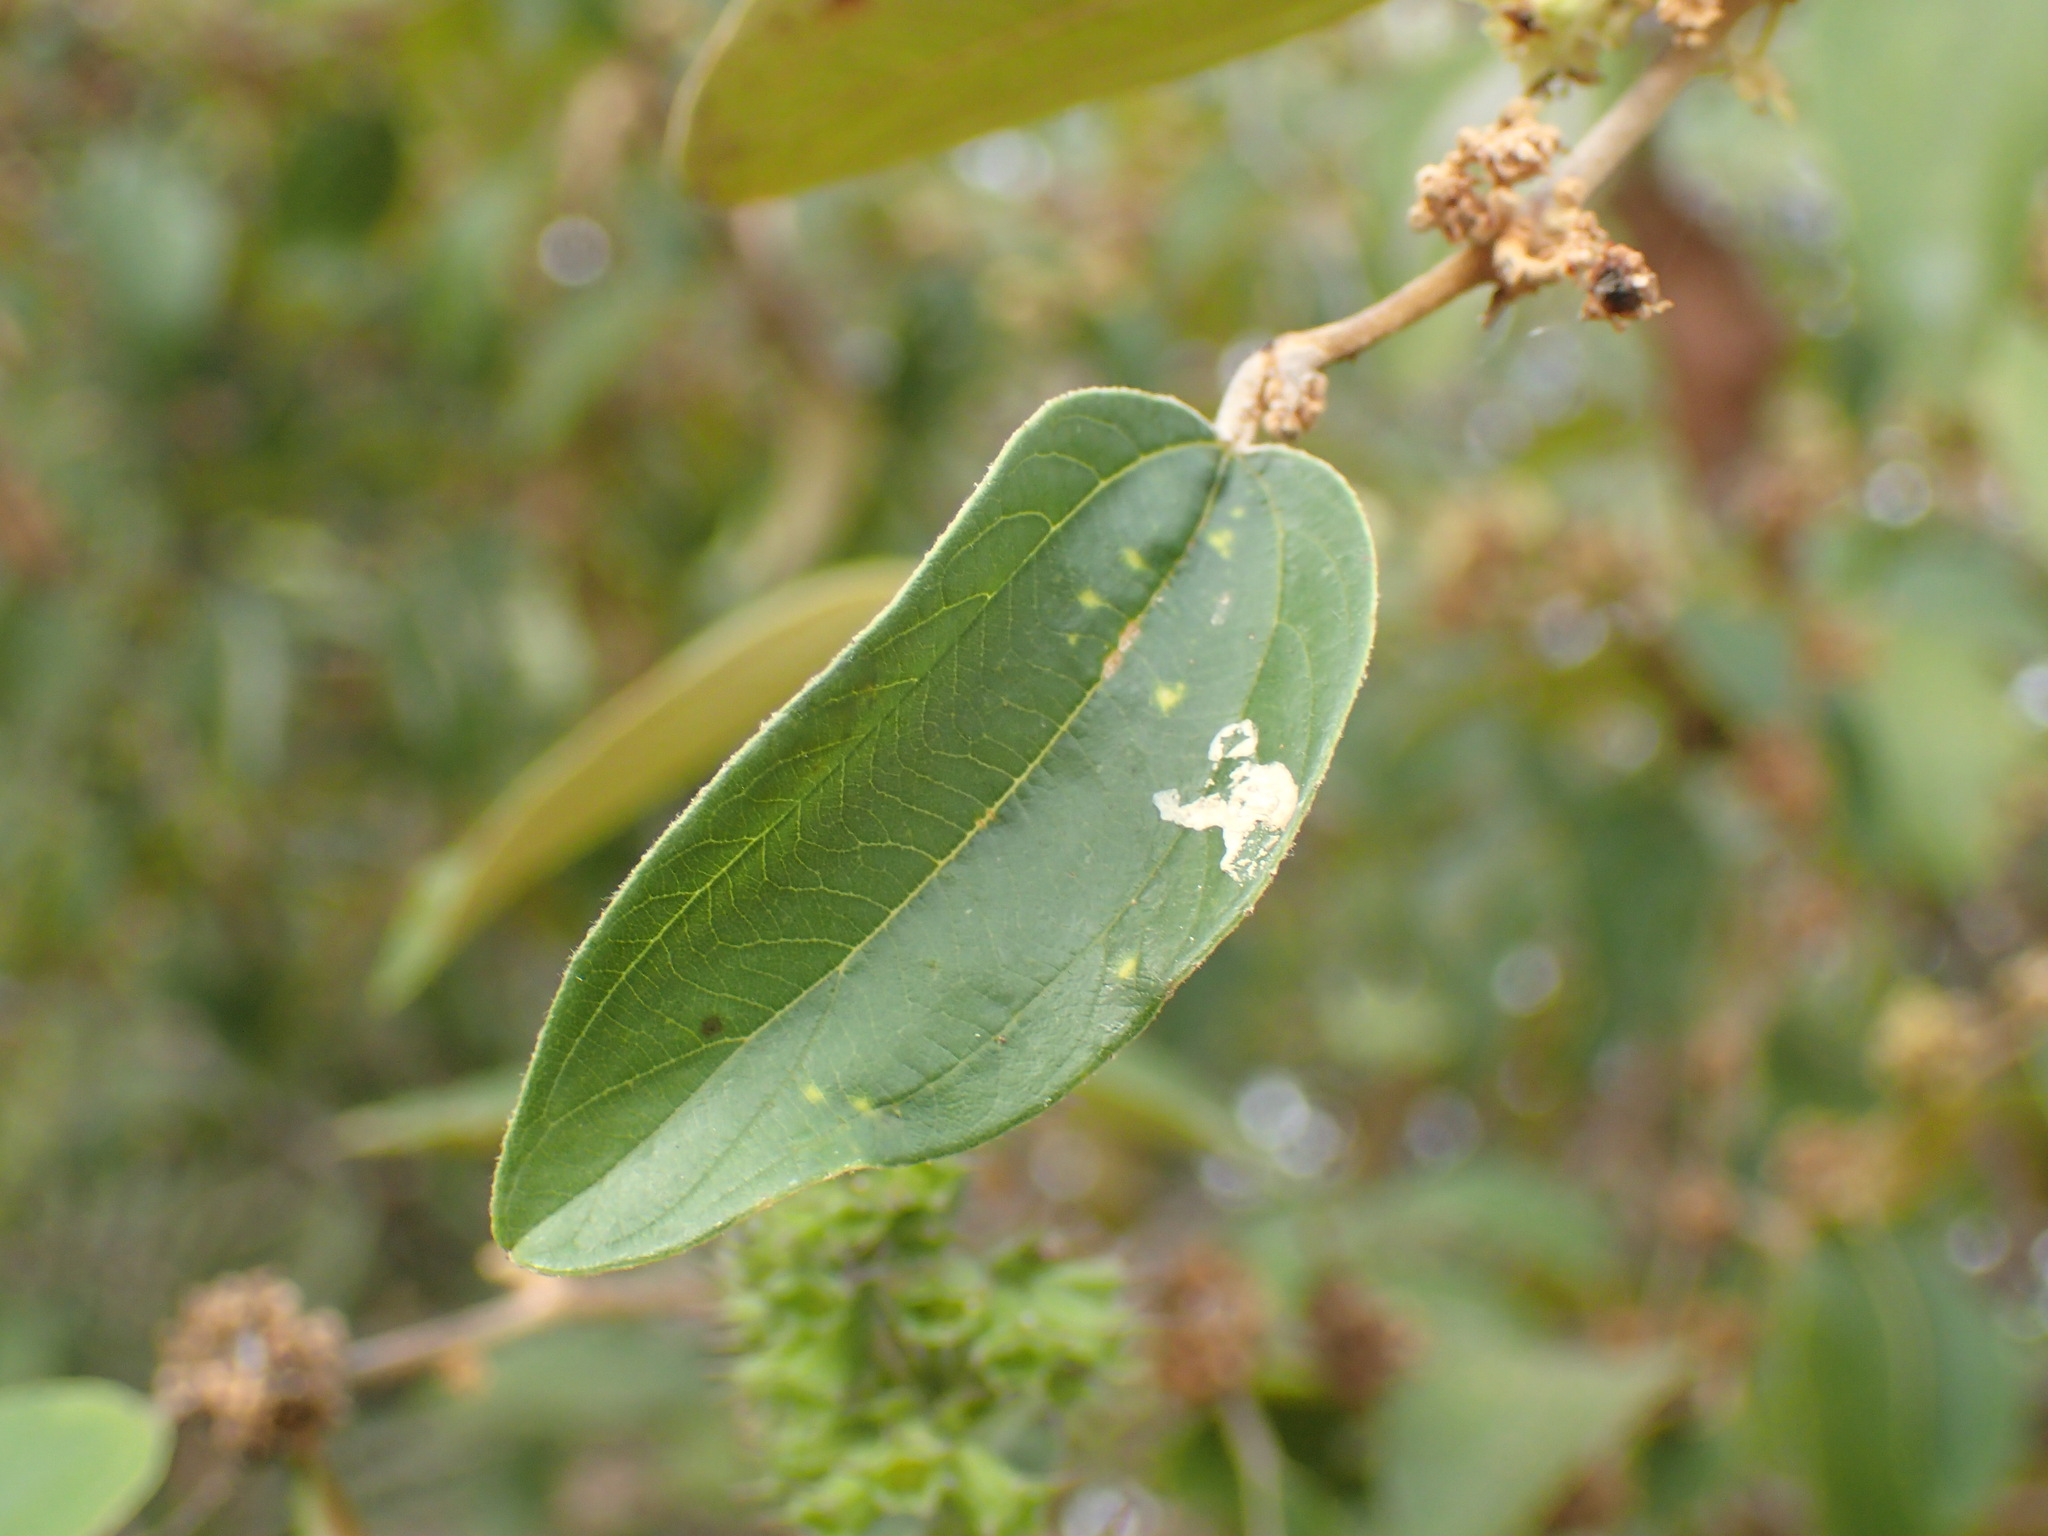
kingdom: Plantae
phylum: Tracheophyta
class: Magnoliopsida
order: Rosales
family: Rhamnaceae
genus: Ziziphus
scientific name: Ziziphus mauritiana
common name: Indian jujube
